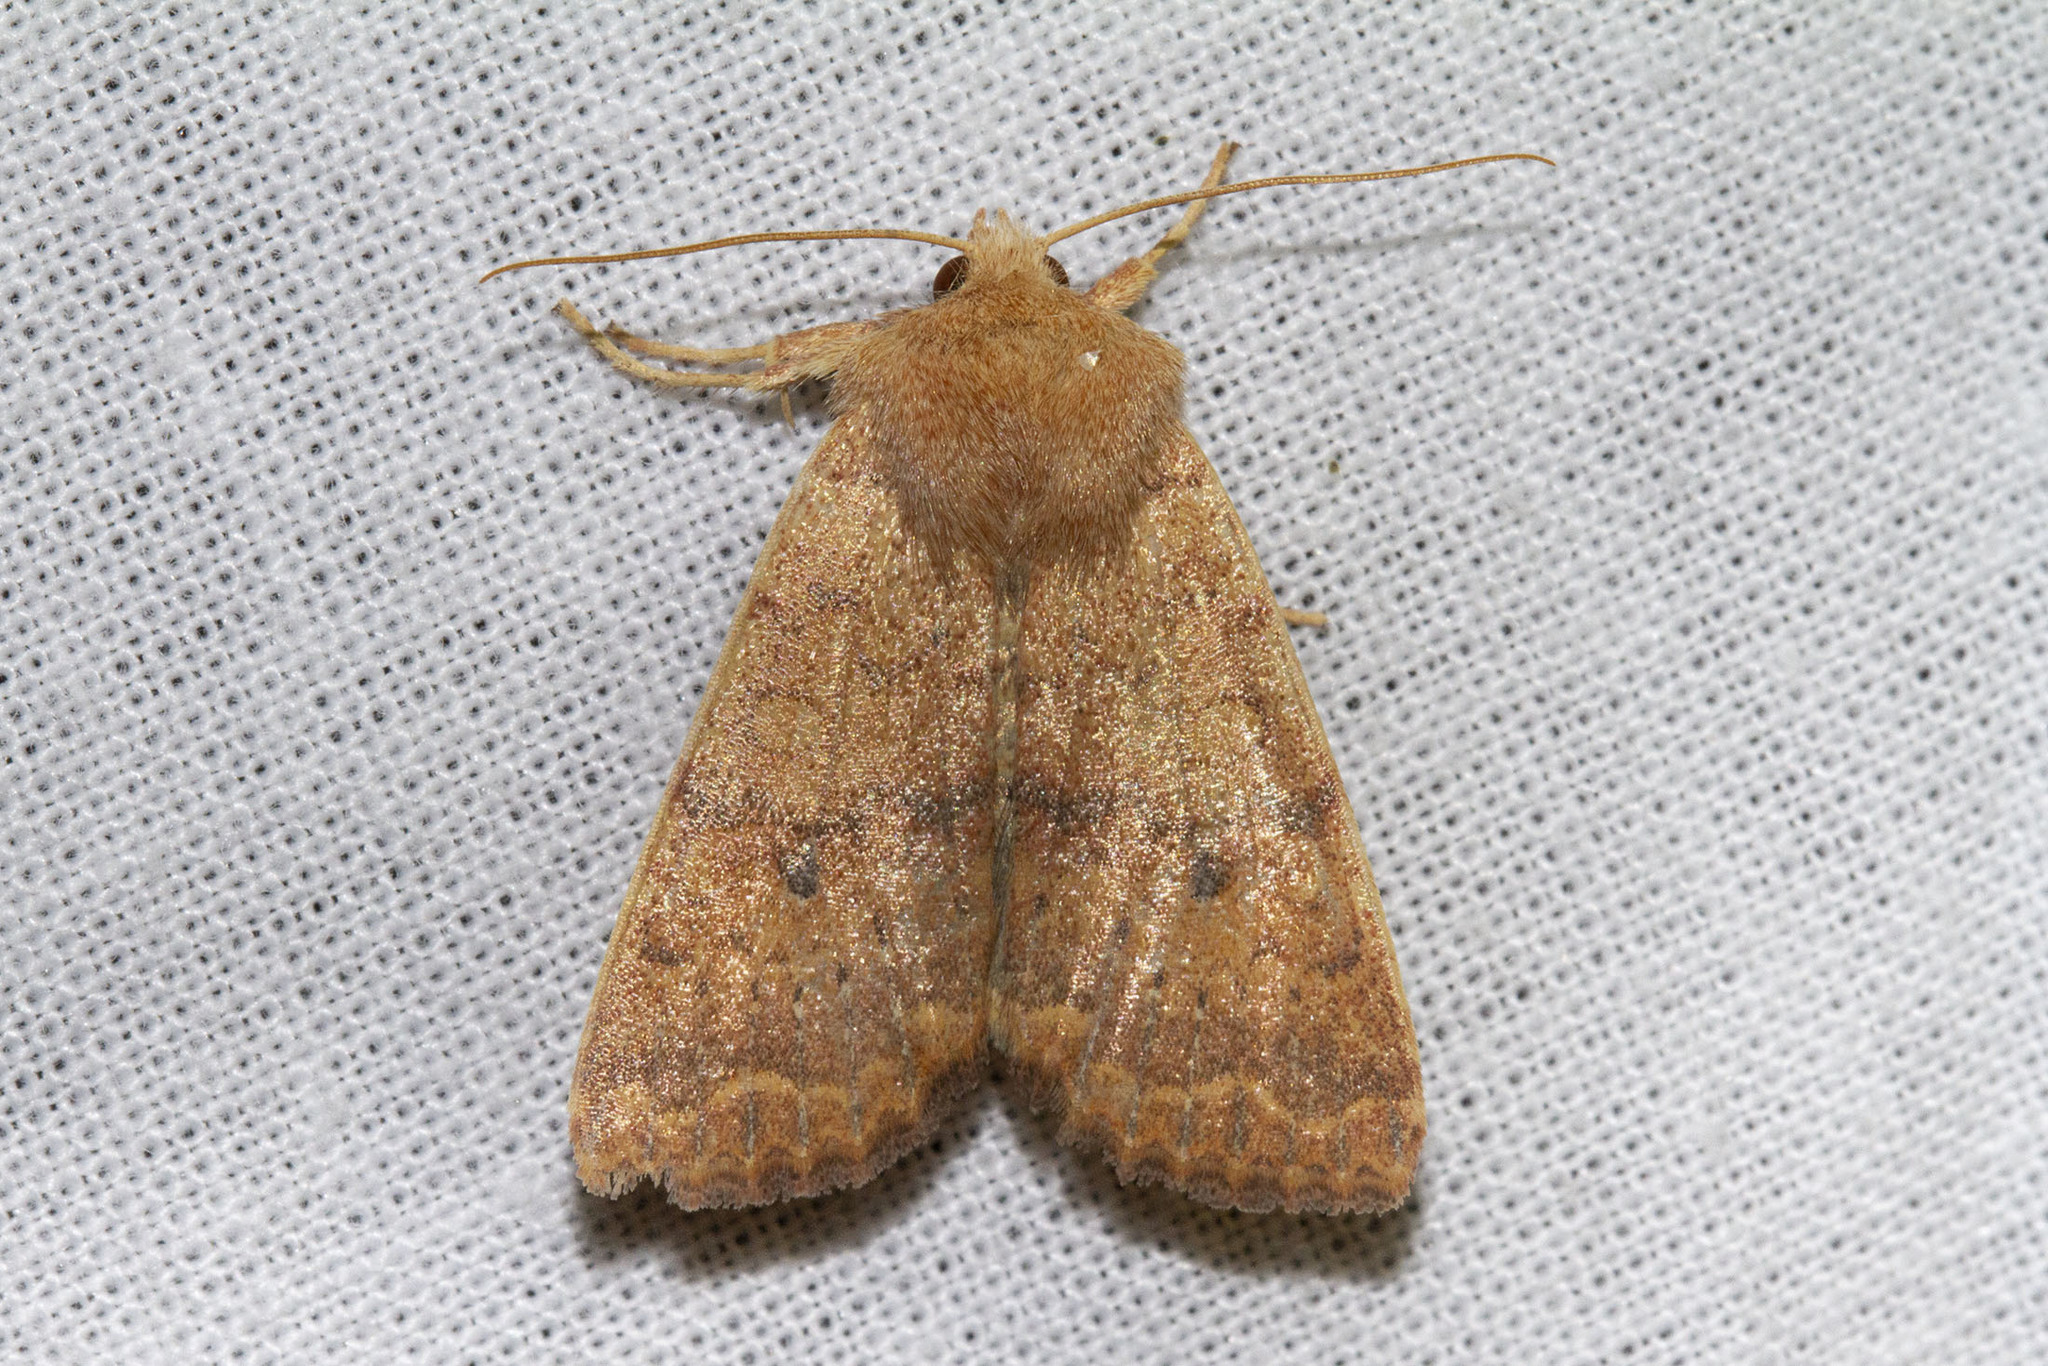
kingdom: Animalia
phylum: Arthropoda
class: Insecta
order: Lepidoptera
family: Noctuidae
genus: Agrochola
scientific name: Agrochola bicolorago
